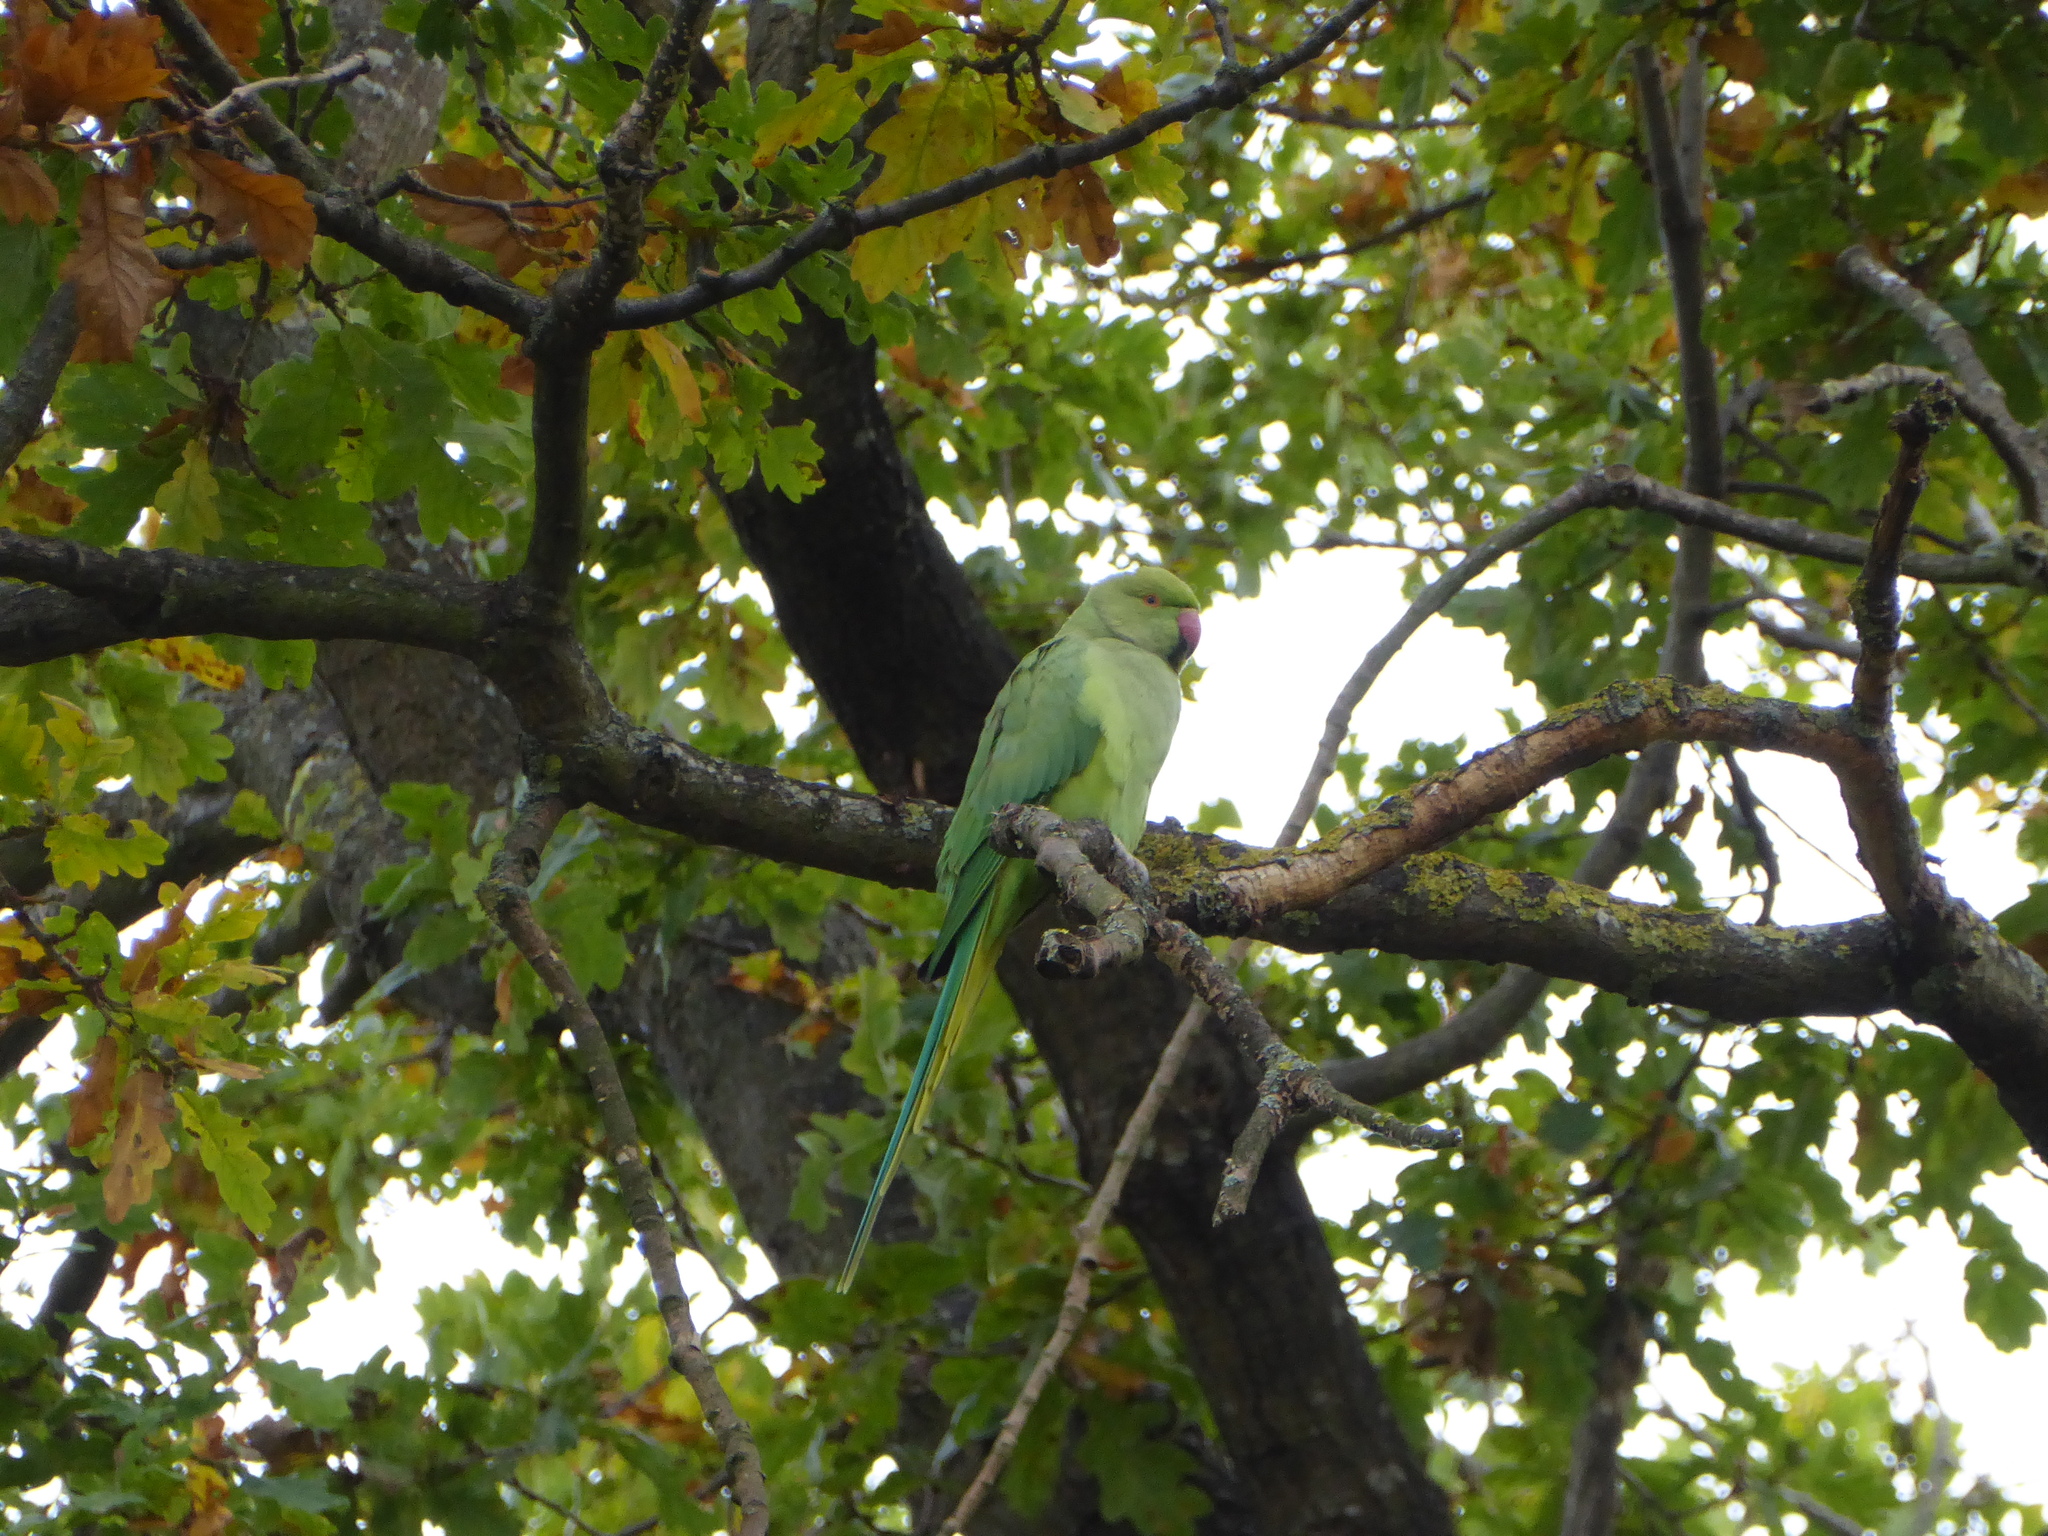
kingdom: Animalia
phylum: Chordata
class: Aves
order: Psittaciformes
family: Psittacidae
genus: Psittacula
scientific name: Psittacula krameri
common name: Rose-ringed parakeet
